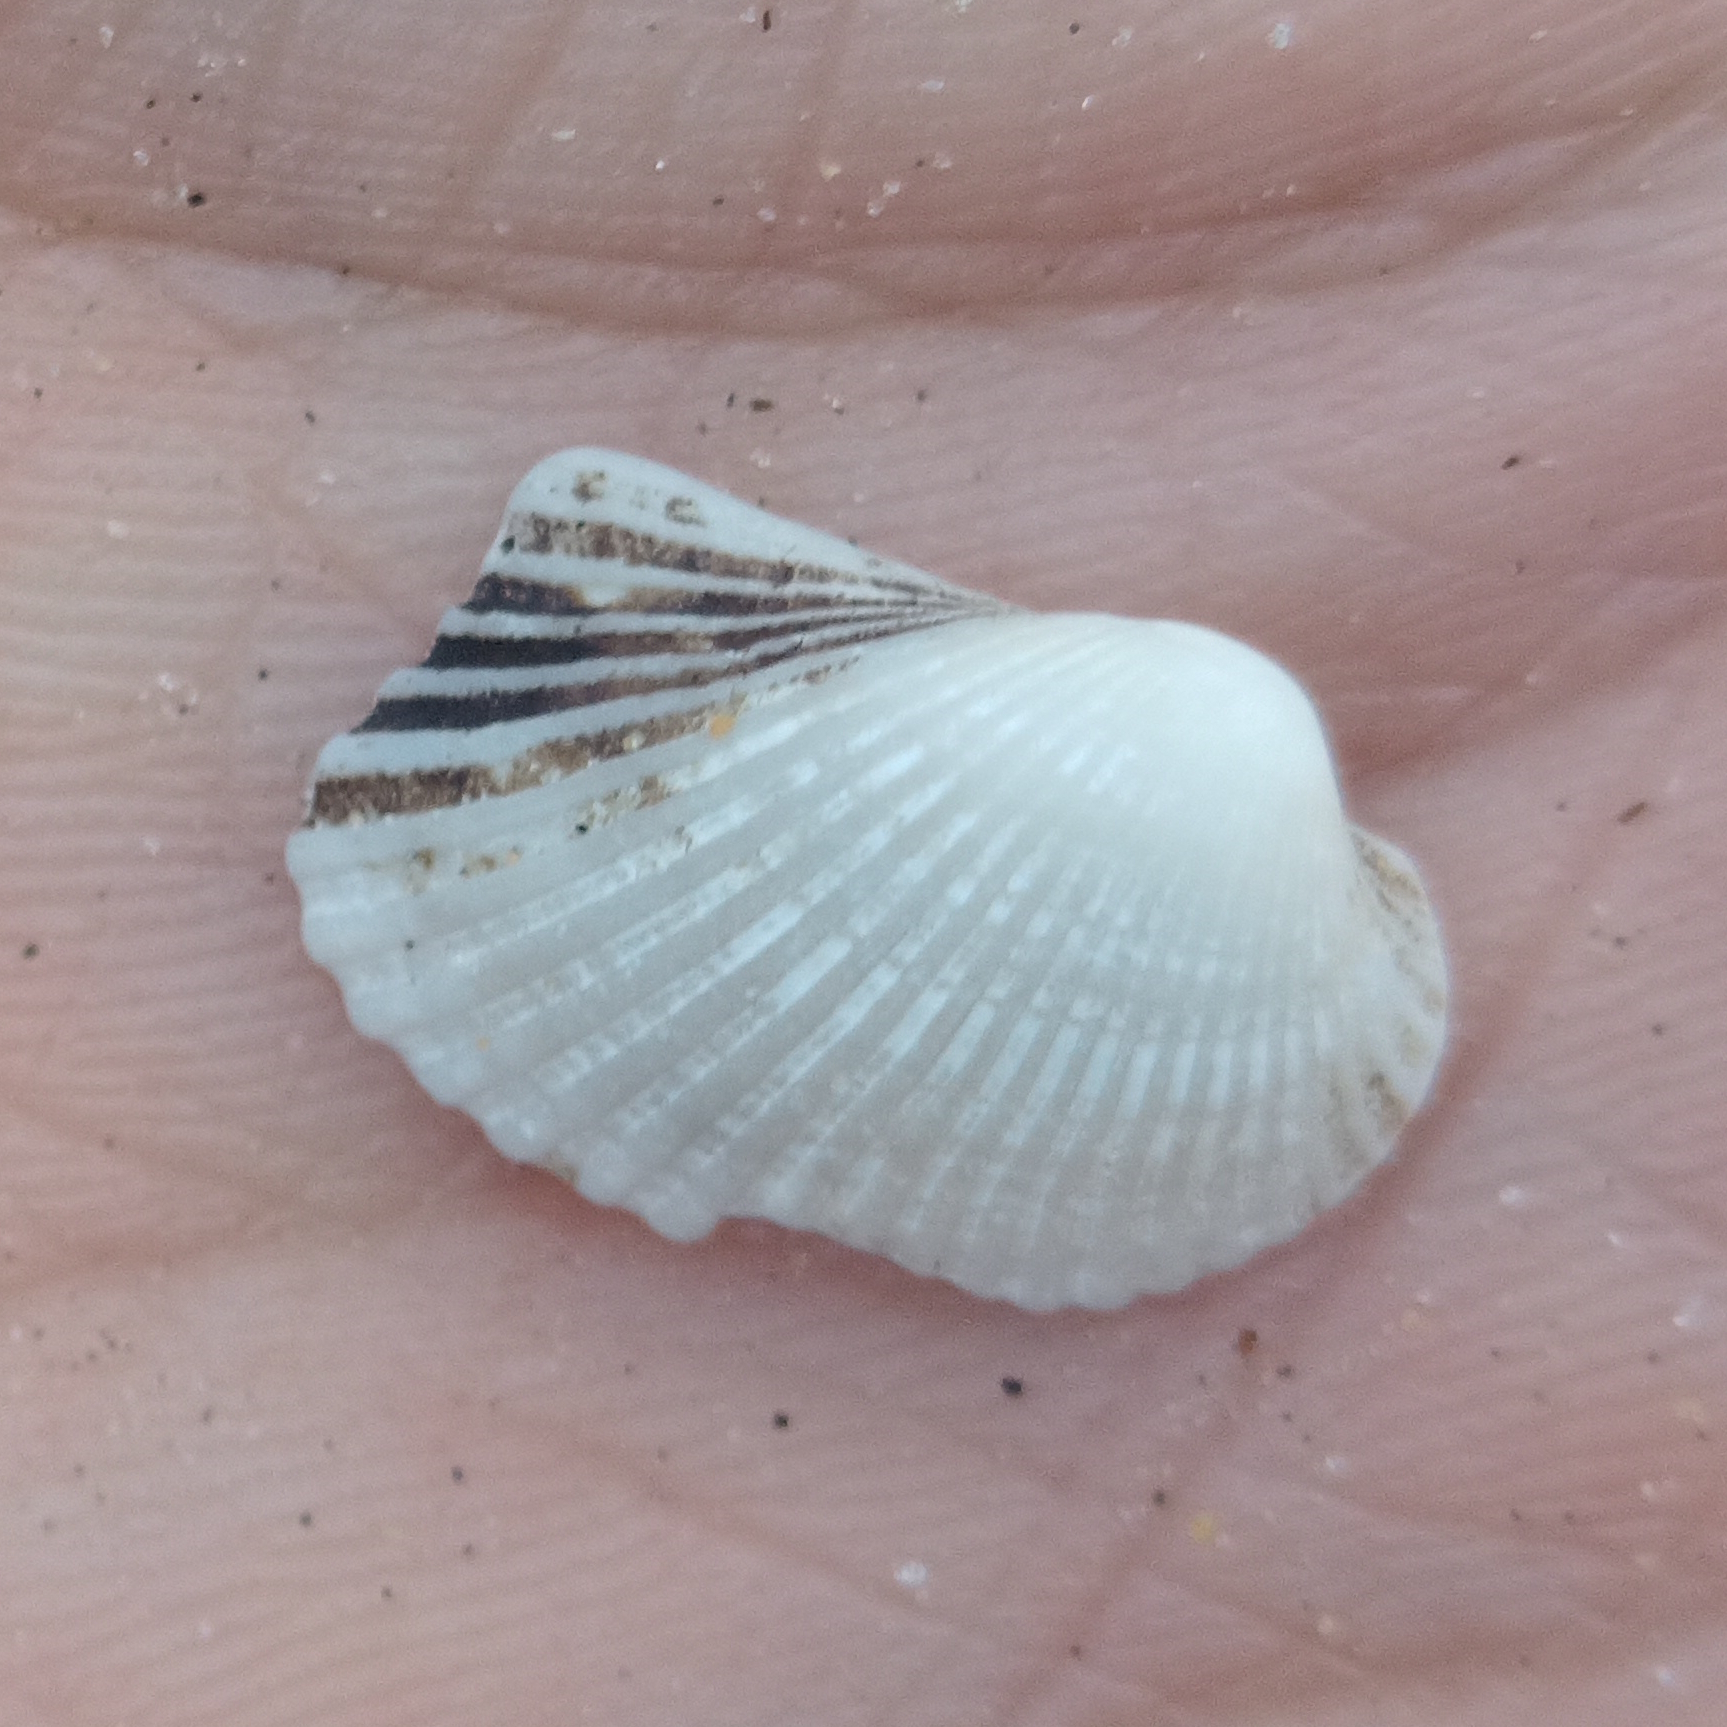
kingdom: Animalia
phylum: Mollusca
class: Bivalvia
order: Arcida
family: Arcidae
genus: Anadara
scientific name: Anadara notabilis
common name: Eared ark
